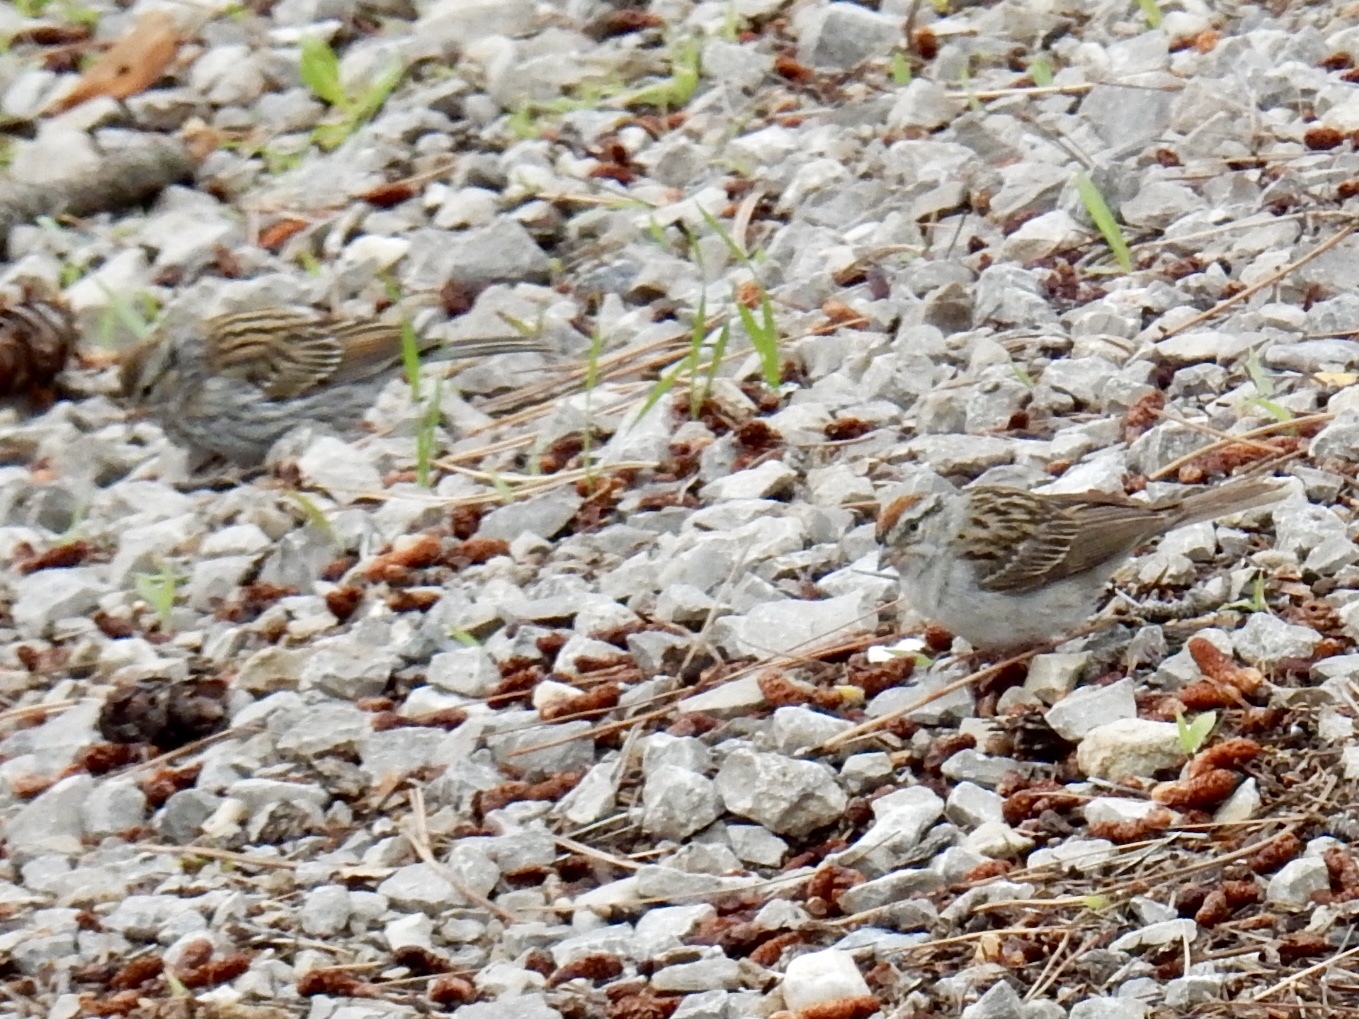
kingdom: Animalia
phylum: Chordata
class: Aves
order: Passeriformes
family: Passerellidae
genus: Spizella
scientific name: Spizella passerina
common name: Chipping sparrow
